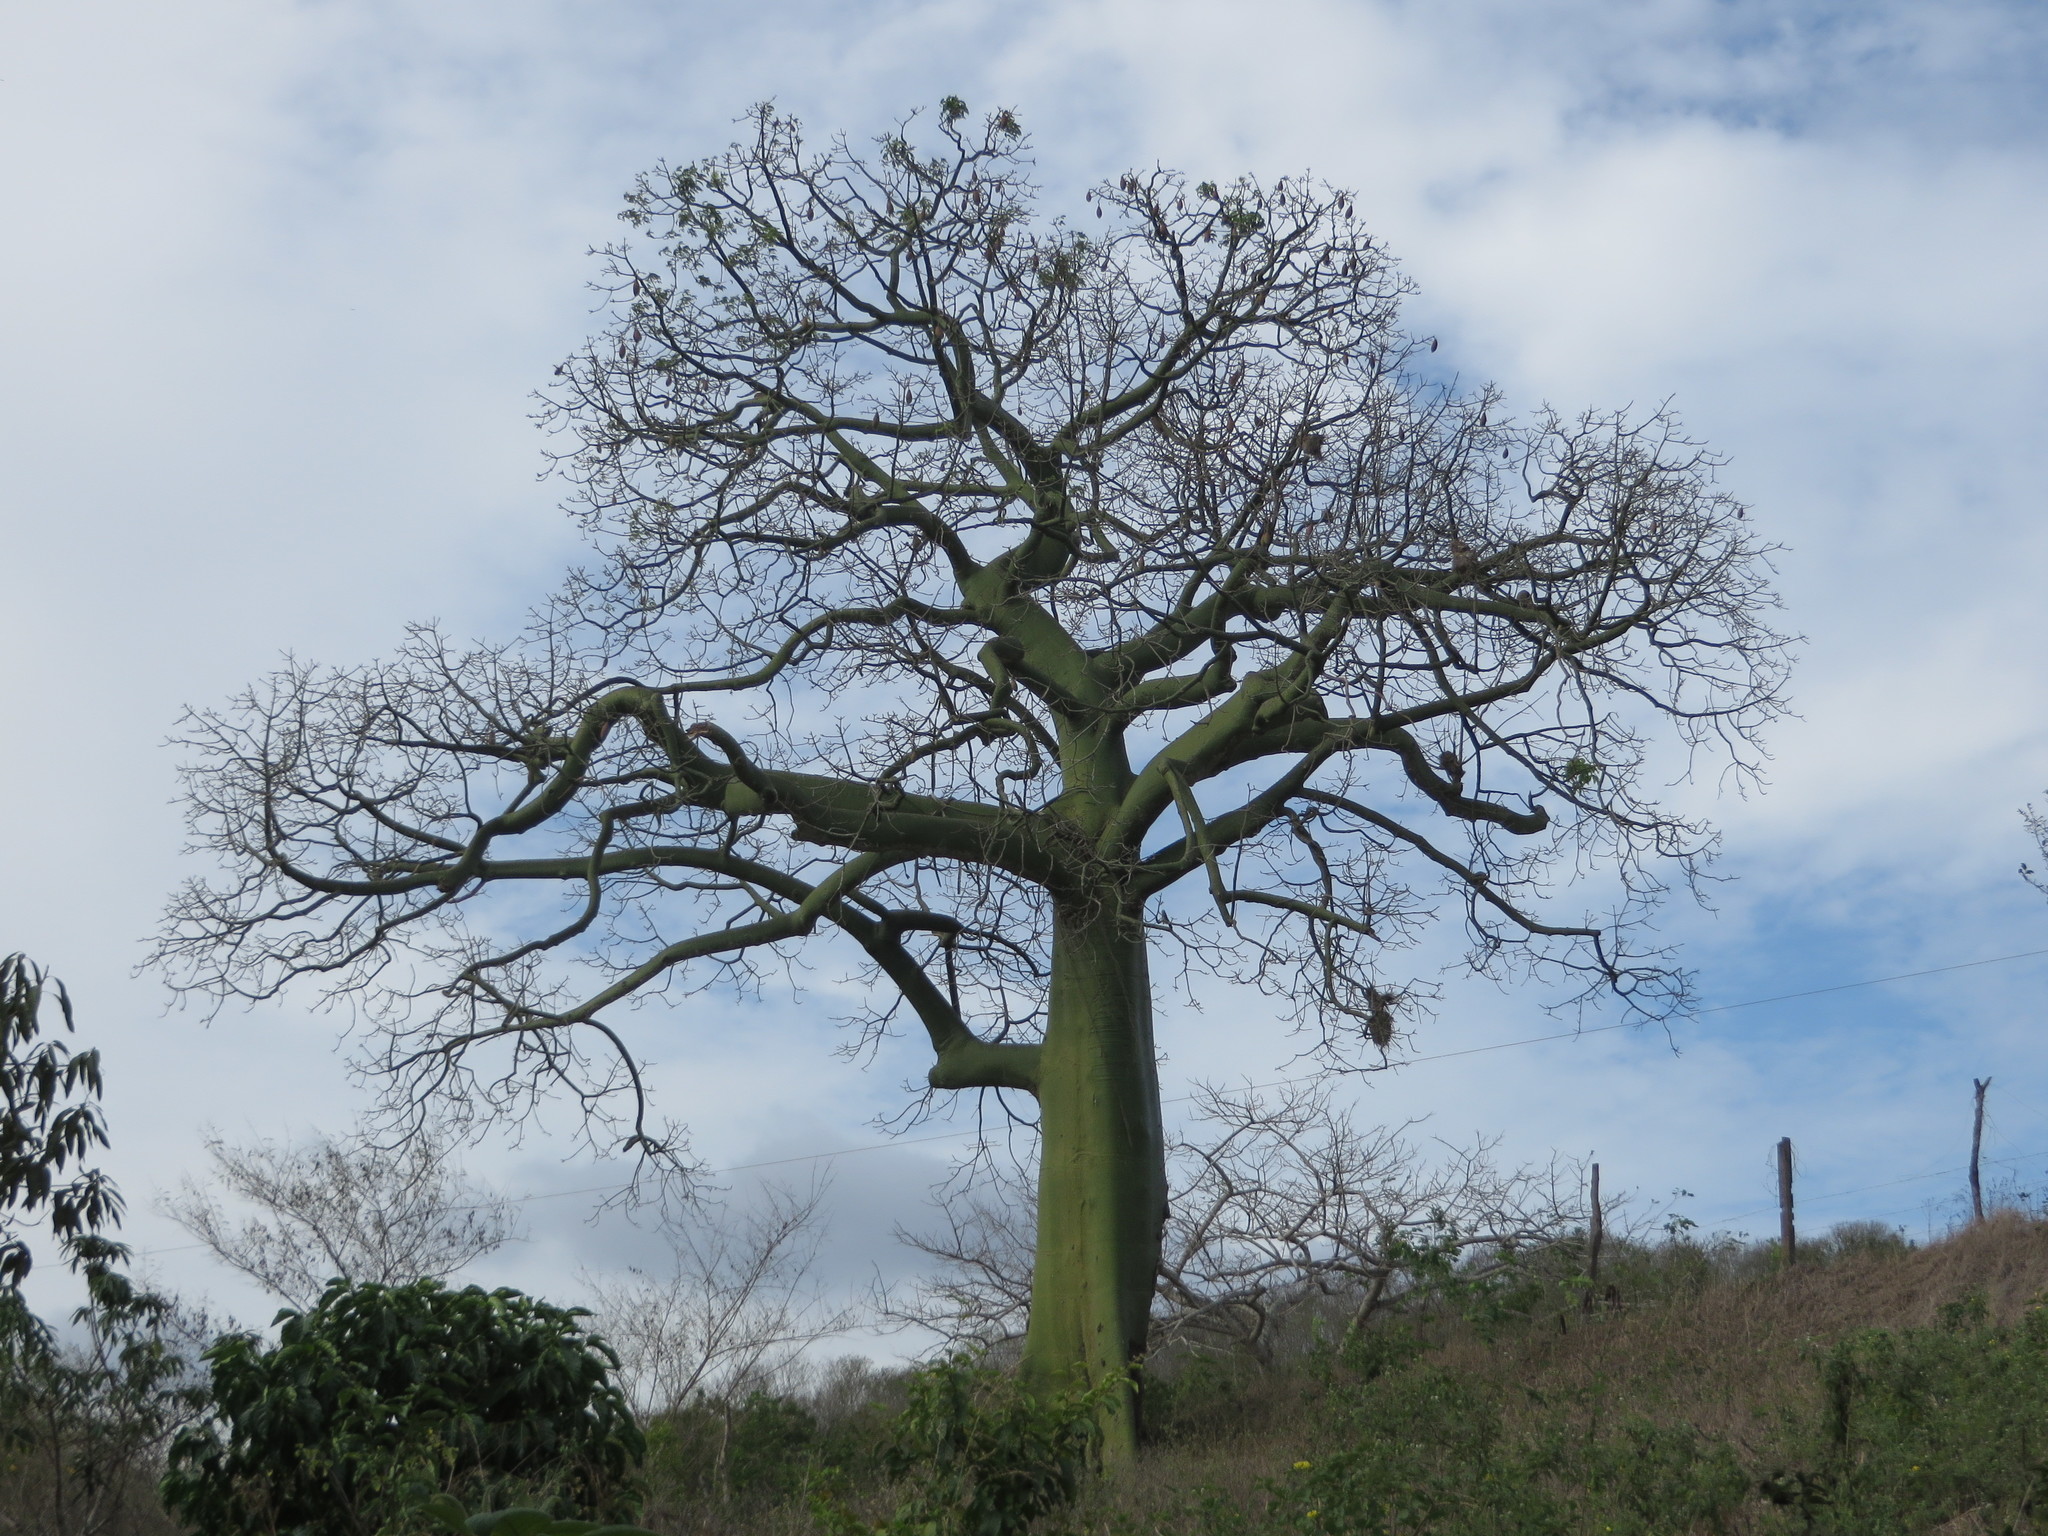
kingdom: Plantae
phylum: Tracheophyta
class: Magnoliopsida
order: Malvales
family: Malvaceae
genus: Ceiba
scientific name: Ceiba trischistandra
